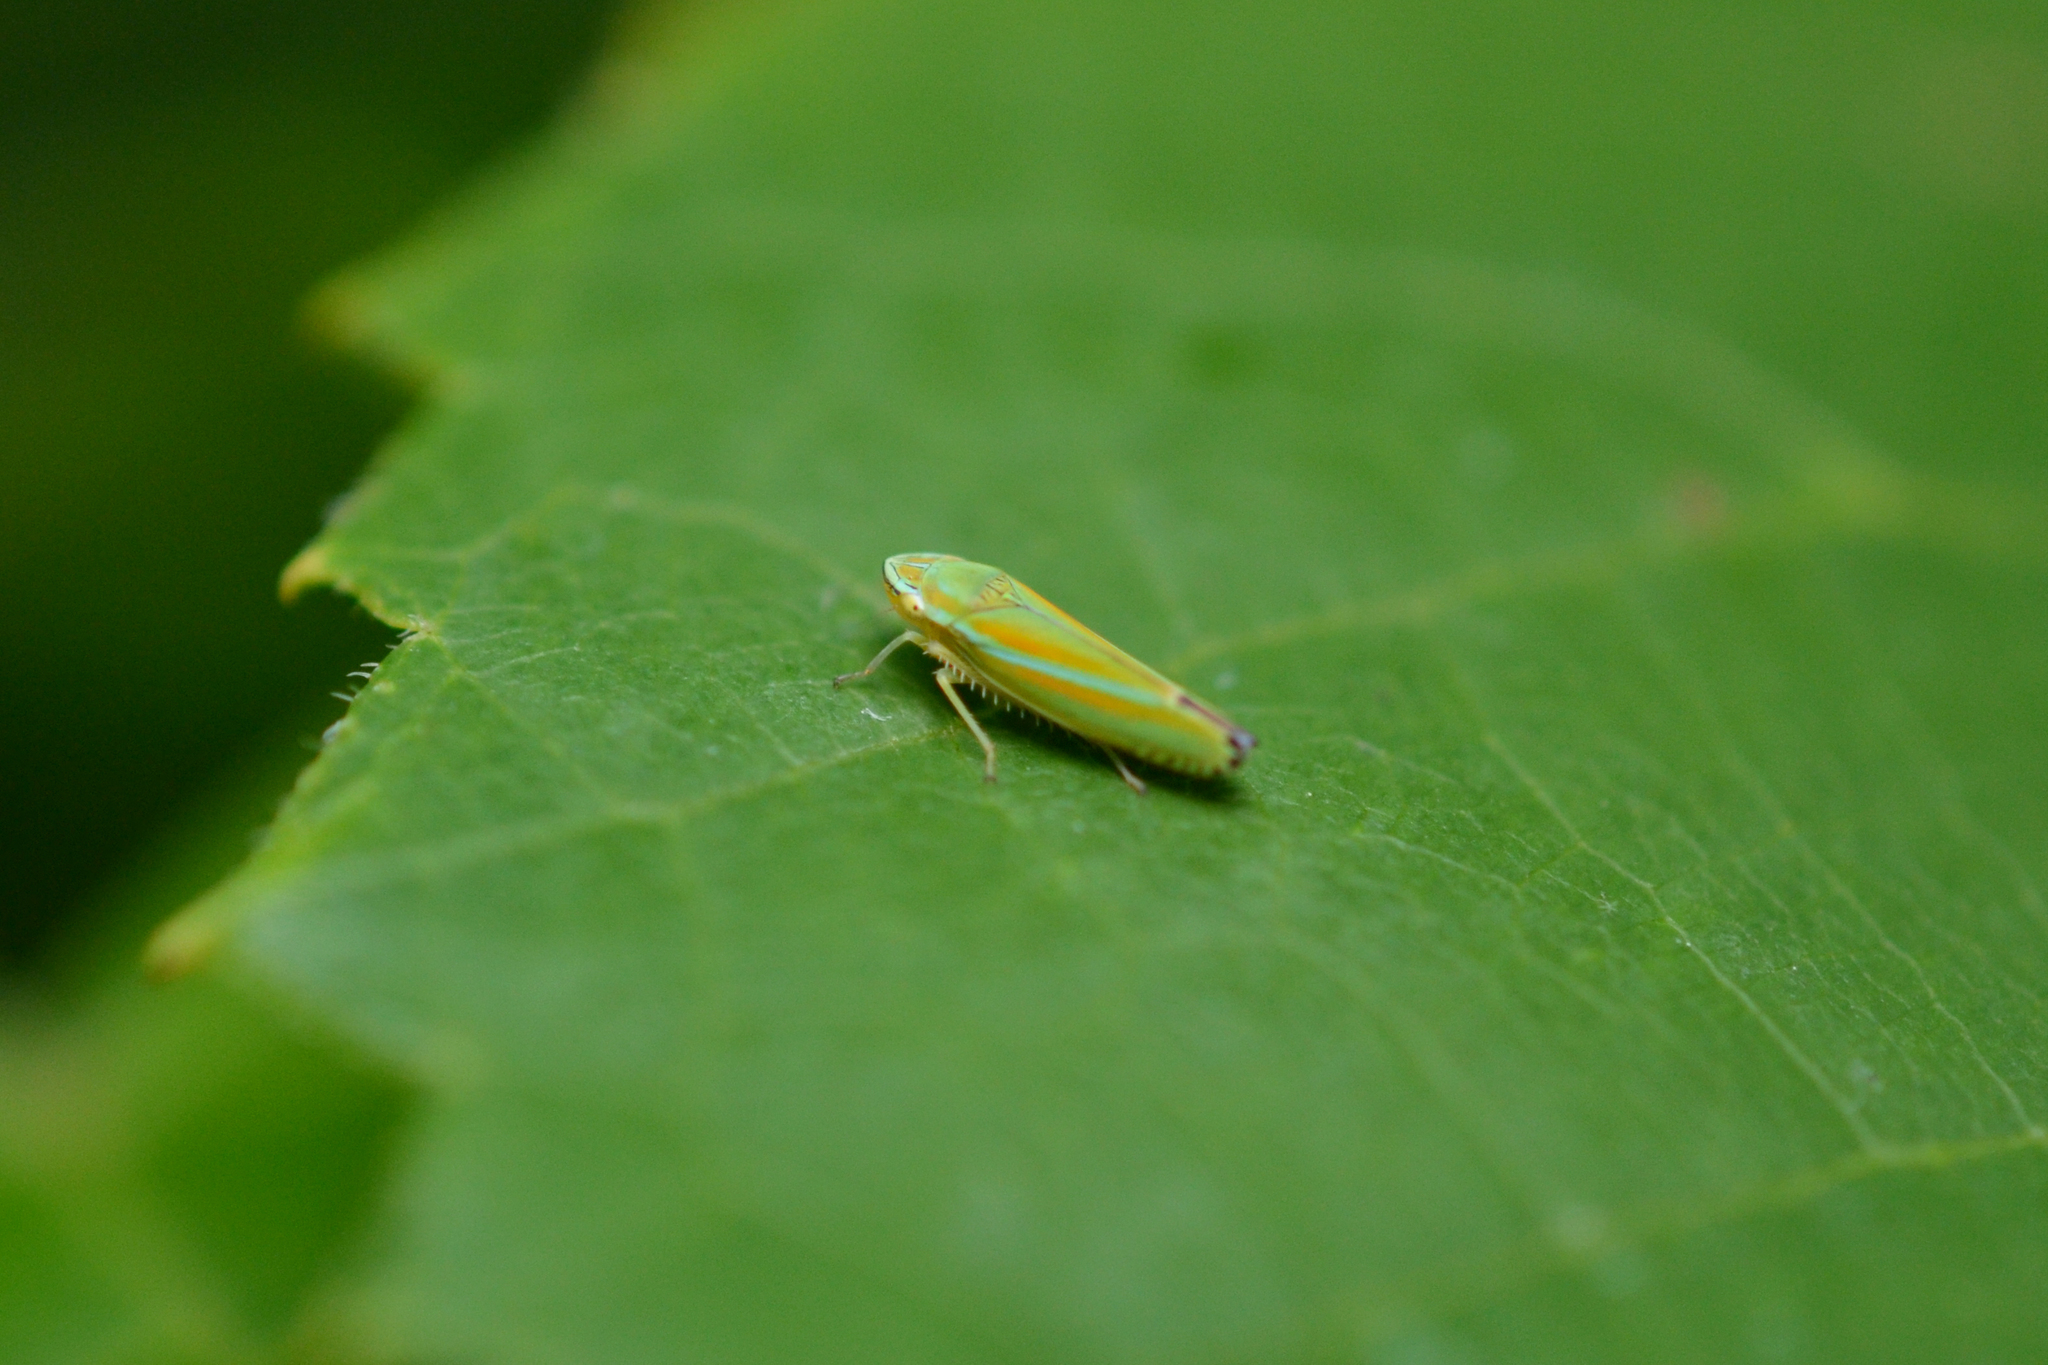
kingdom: Animalia
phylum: Arthropoda
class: Insecta
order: Hemiptera
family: Cicadellidae
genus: Graphocephala
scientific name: Graphocephala versuta
